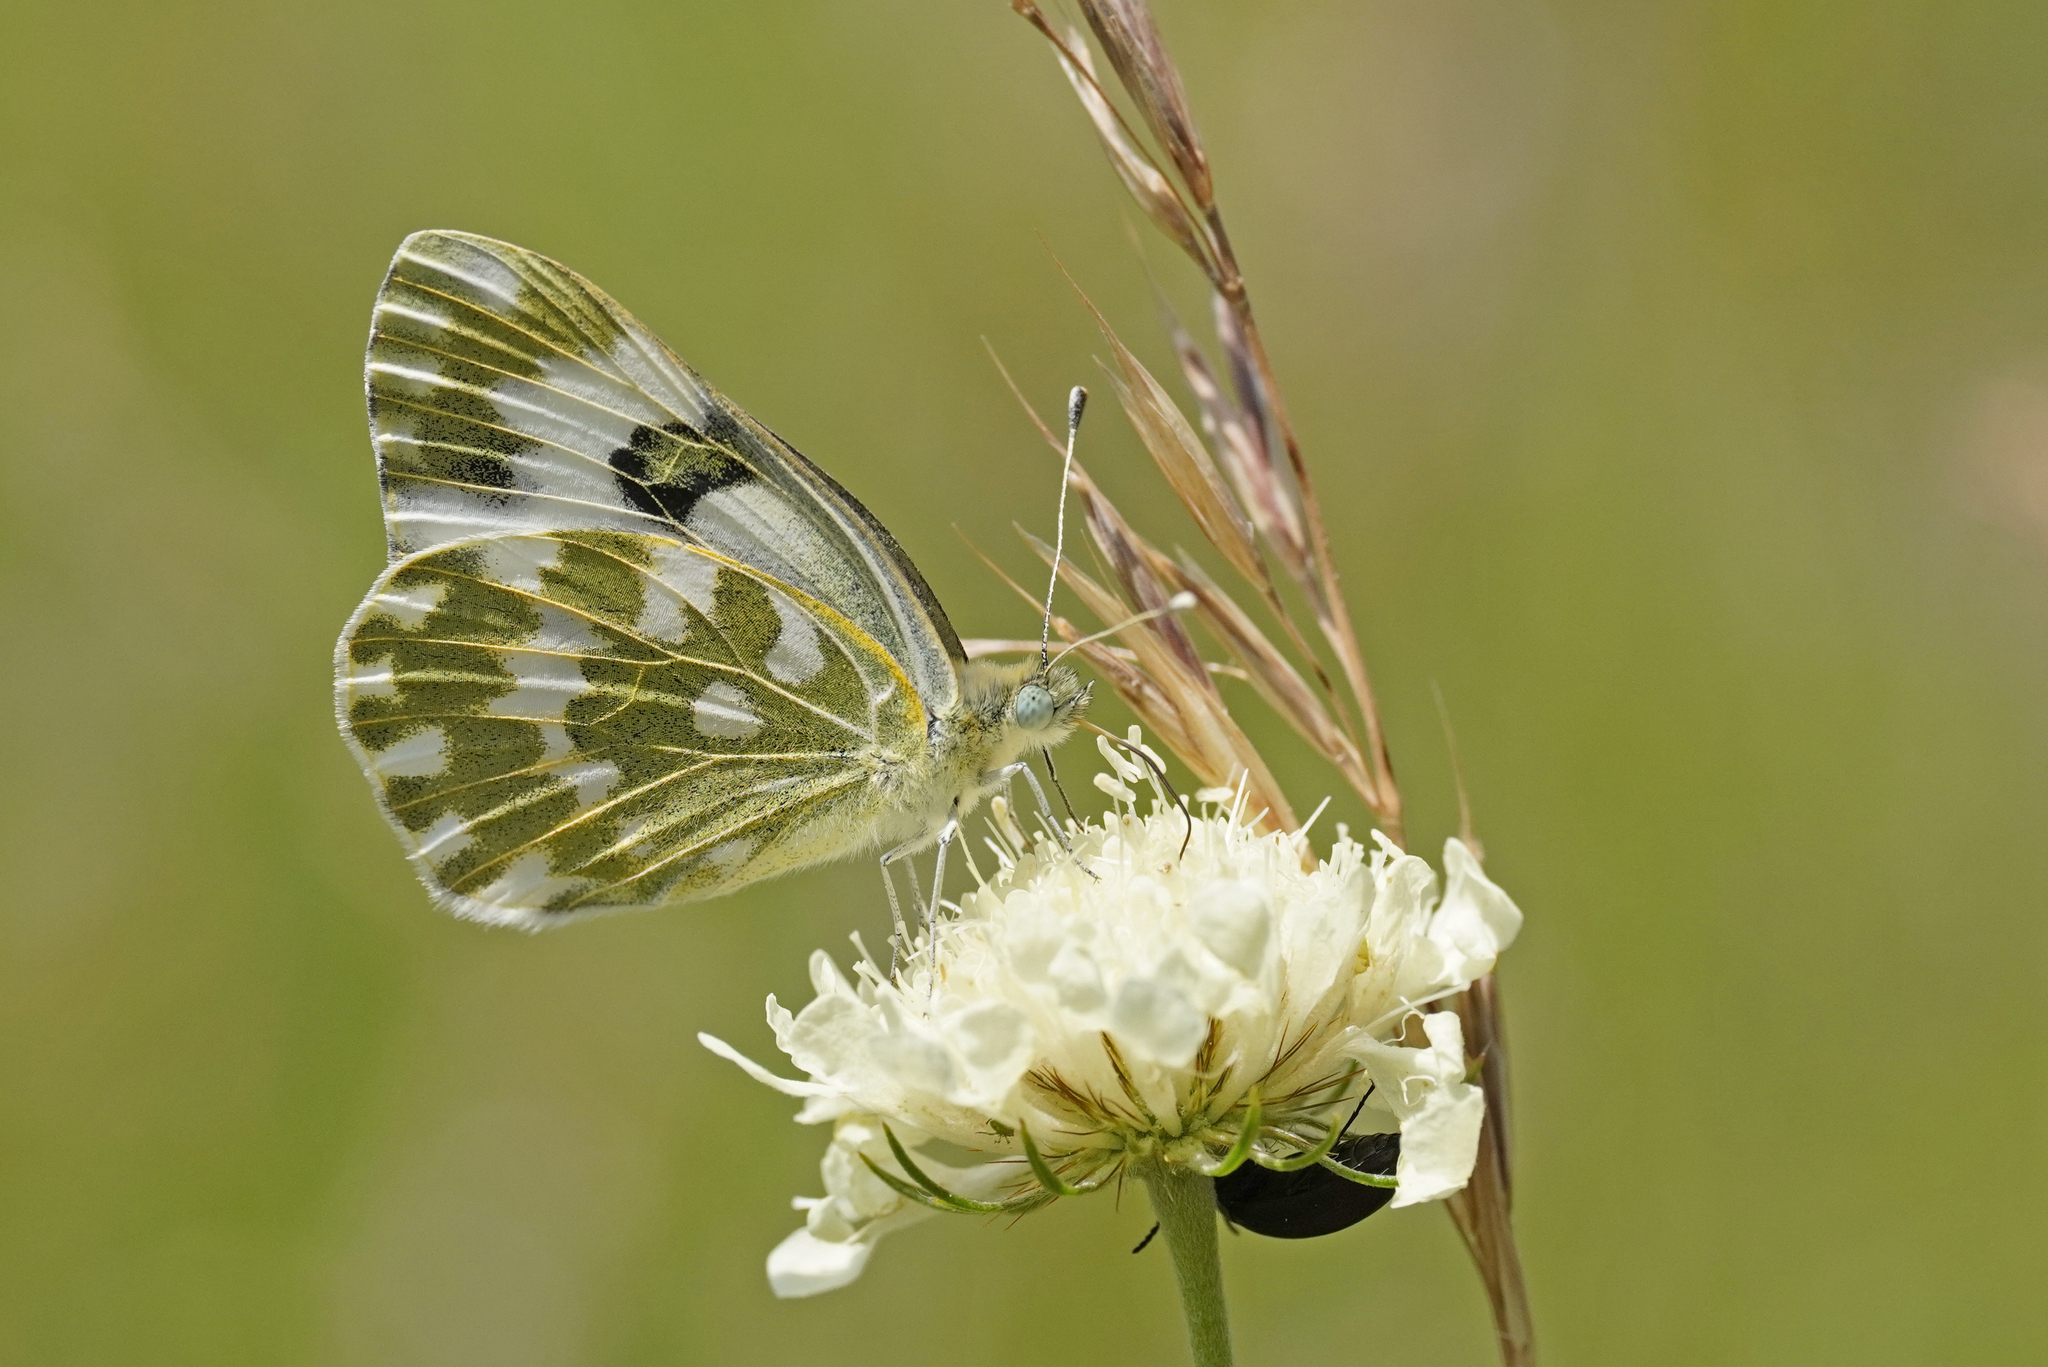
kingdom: Animalia
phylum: Arthropoda
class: Insecta
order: Lepidoptera
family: Pieridae
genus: Pontia
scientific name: Pontia edusa
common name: Eastern bath white
